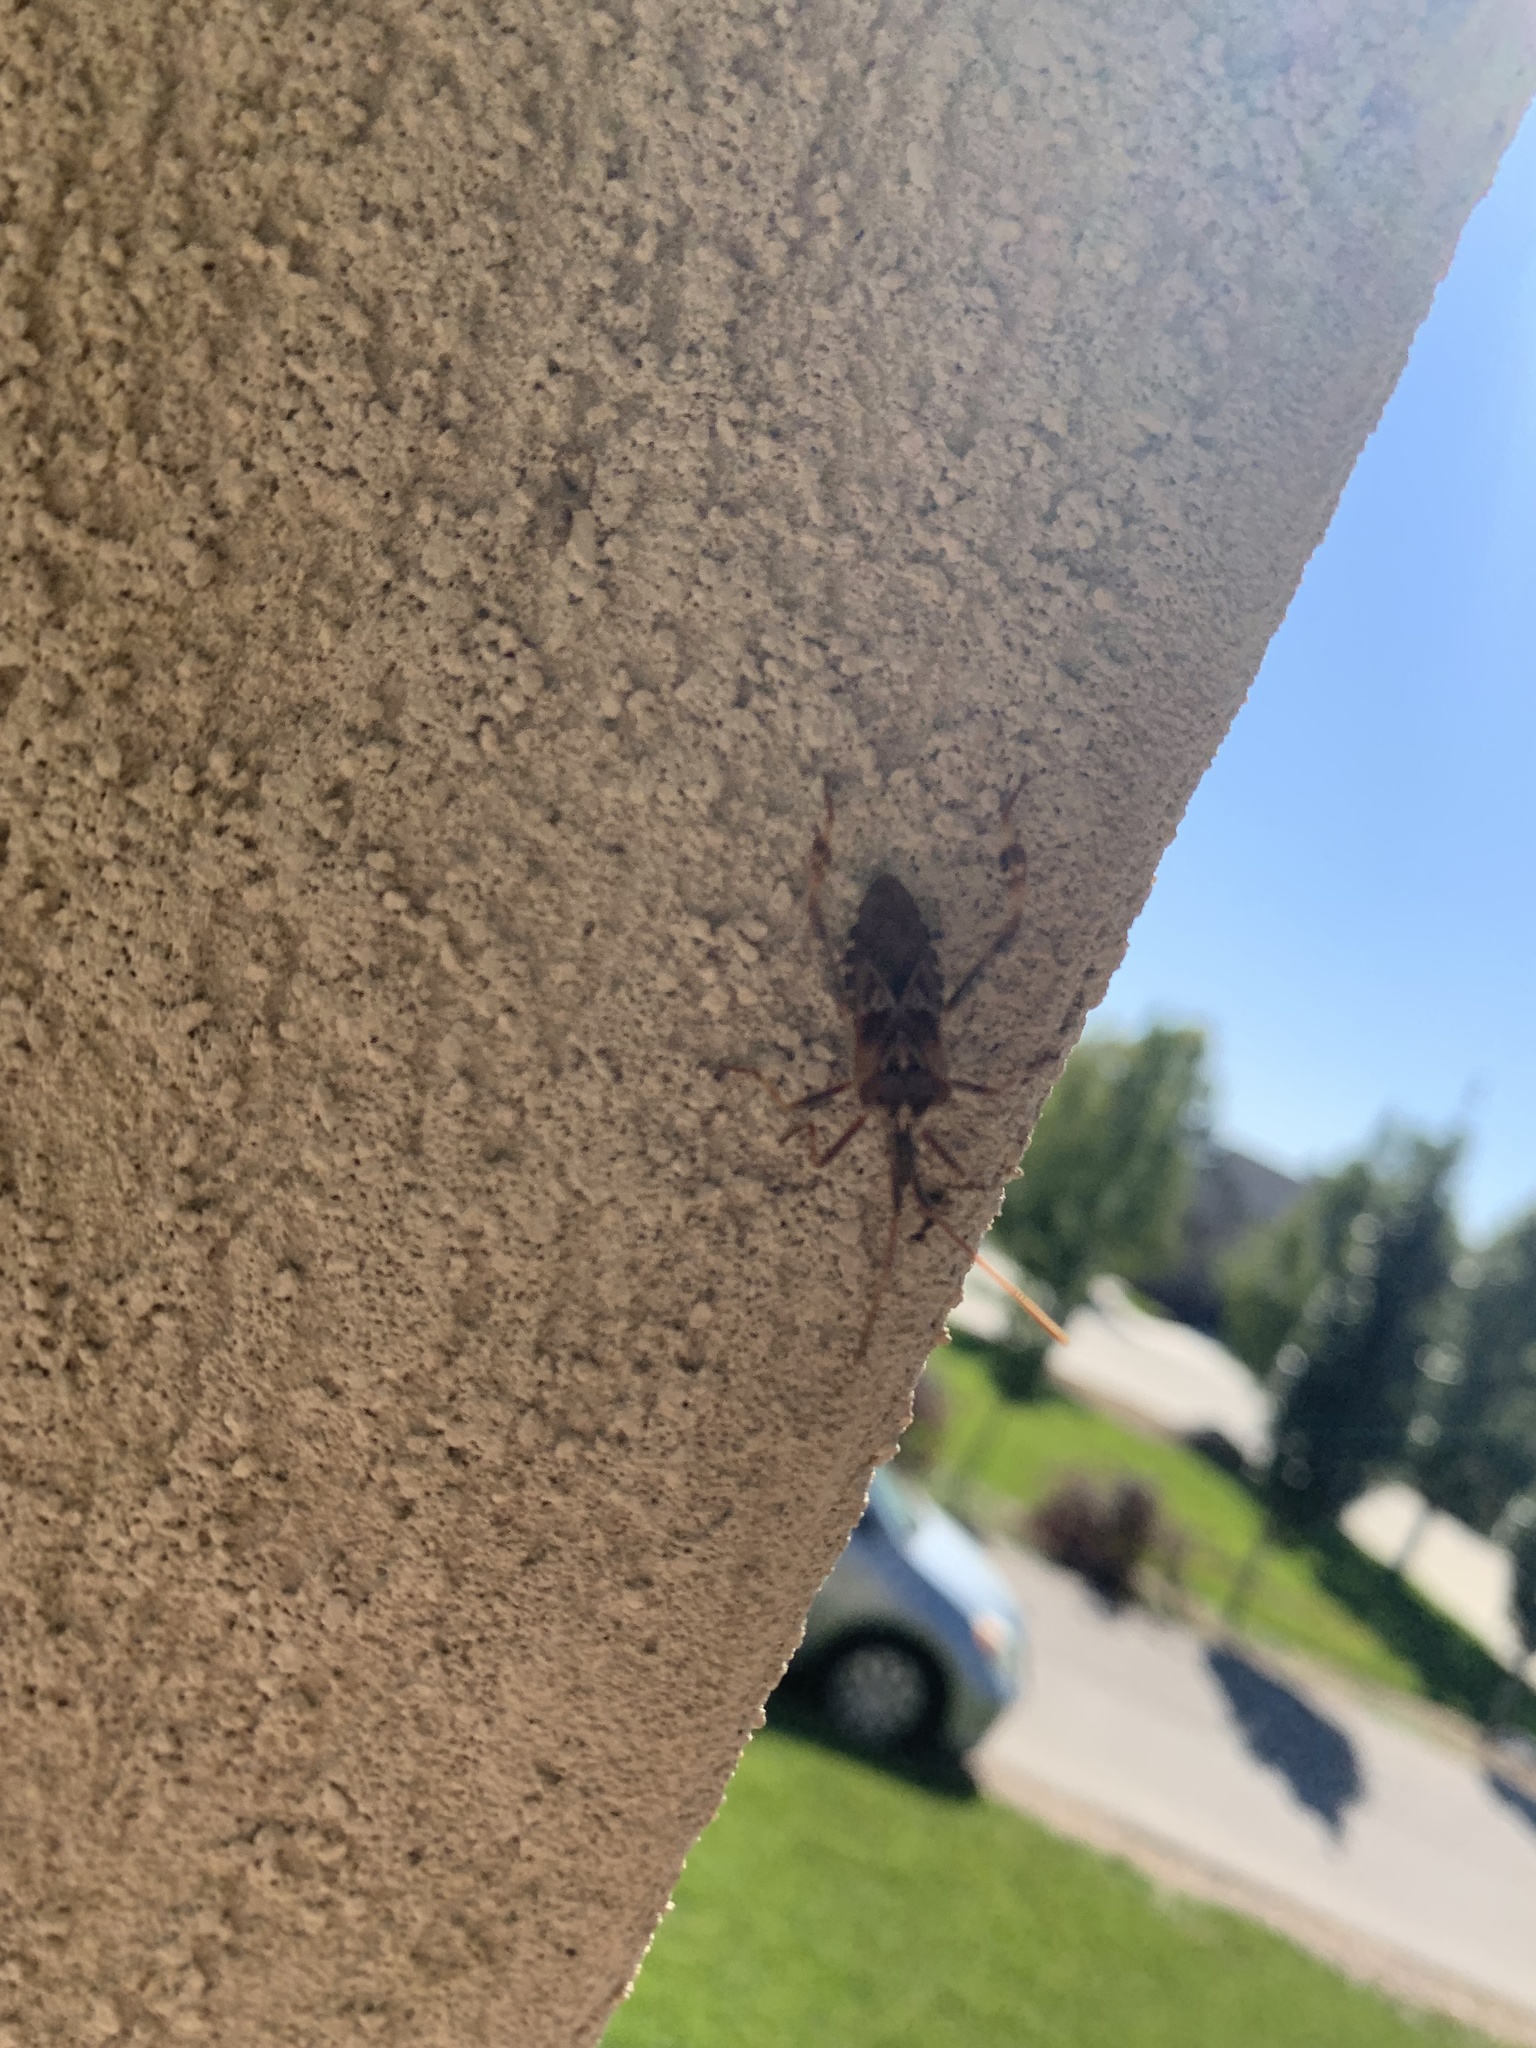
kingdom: Animalia
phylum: Arthropoda
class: Insecta
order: Hemiptera
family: Coreidae
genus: Leptoglossus
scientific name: Leptoglossus occidentalis
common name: Western conifer-seed bug
